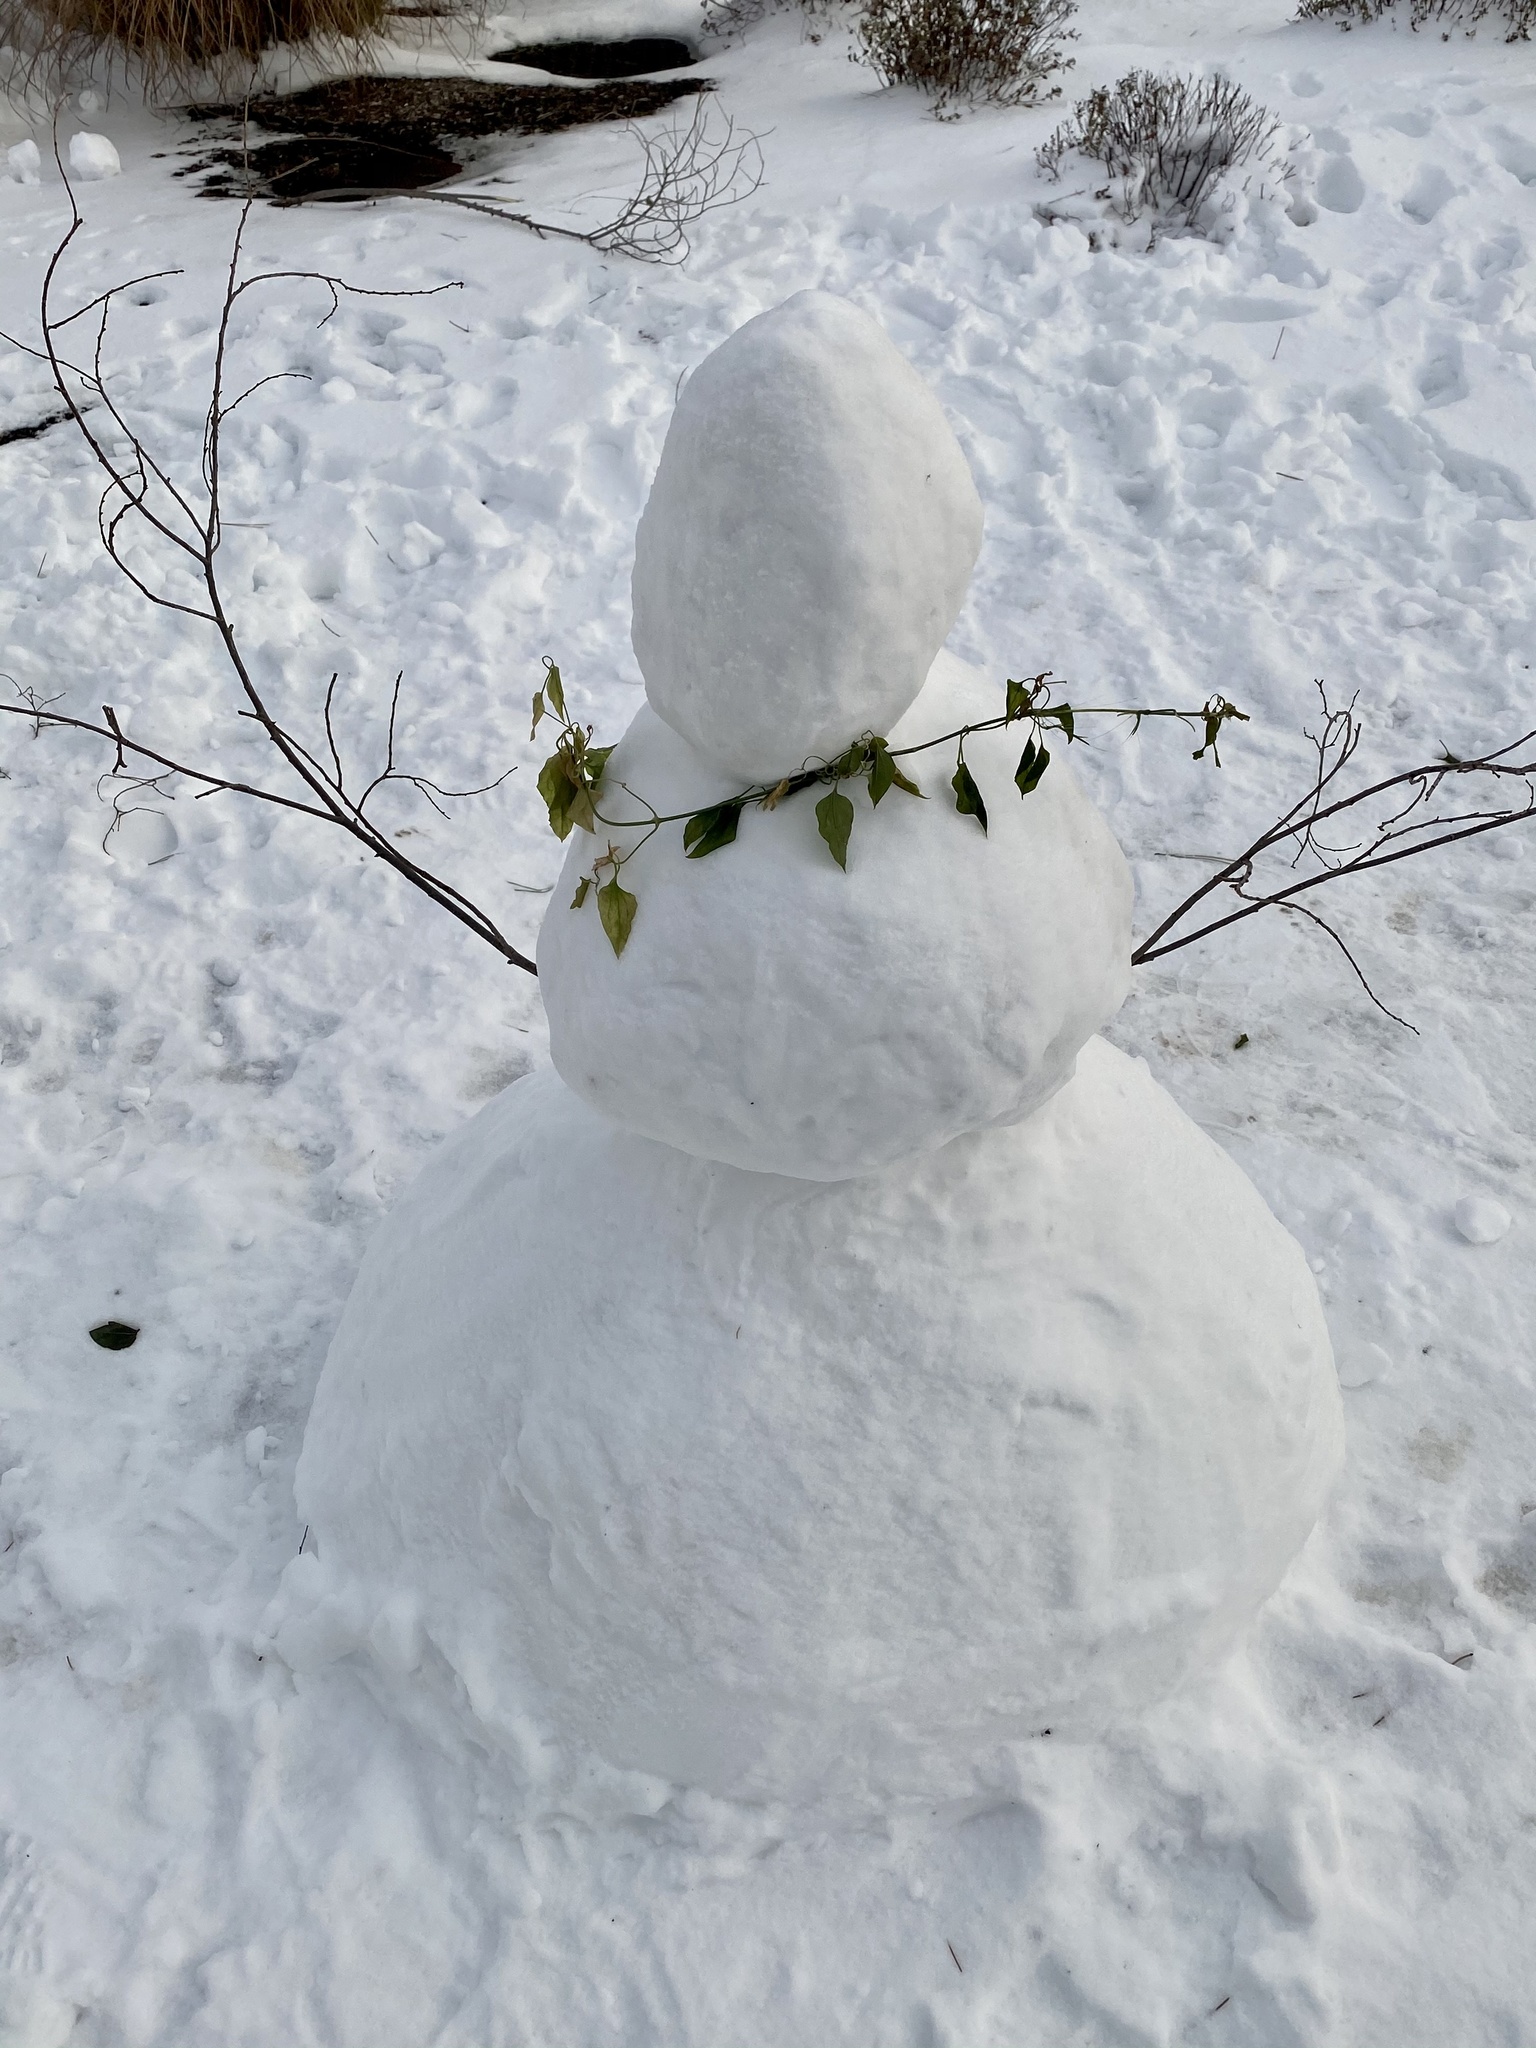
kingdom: Plantae
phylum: Tracheophyta
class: Magnoliopsida
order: Ranunculales
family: Ranunculaceae
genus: Clematis
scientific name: Clematis terniflora
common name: Sweet autumn clematis
